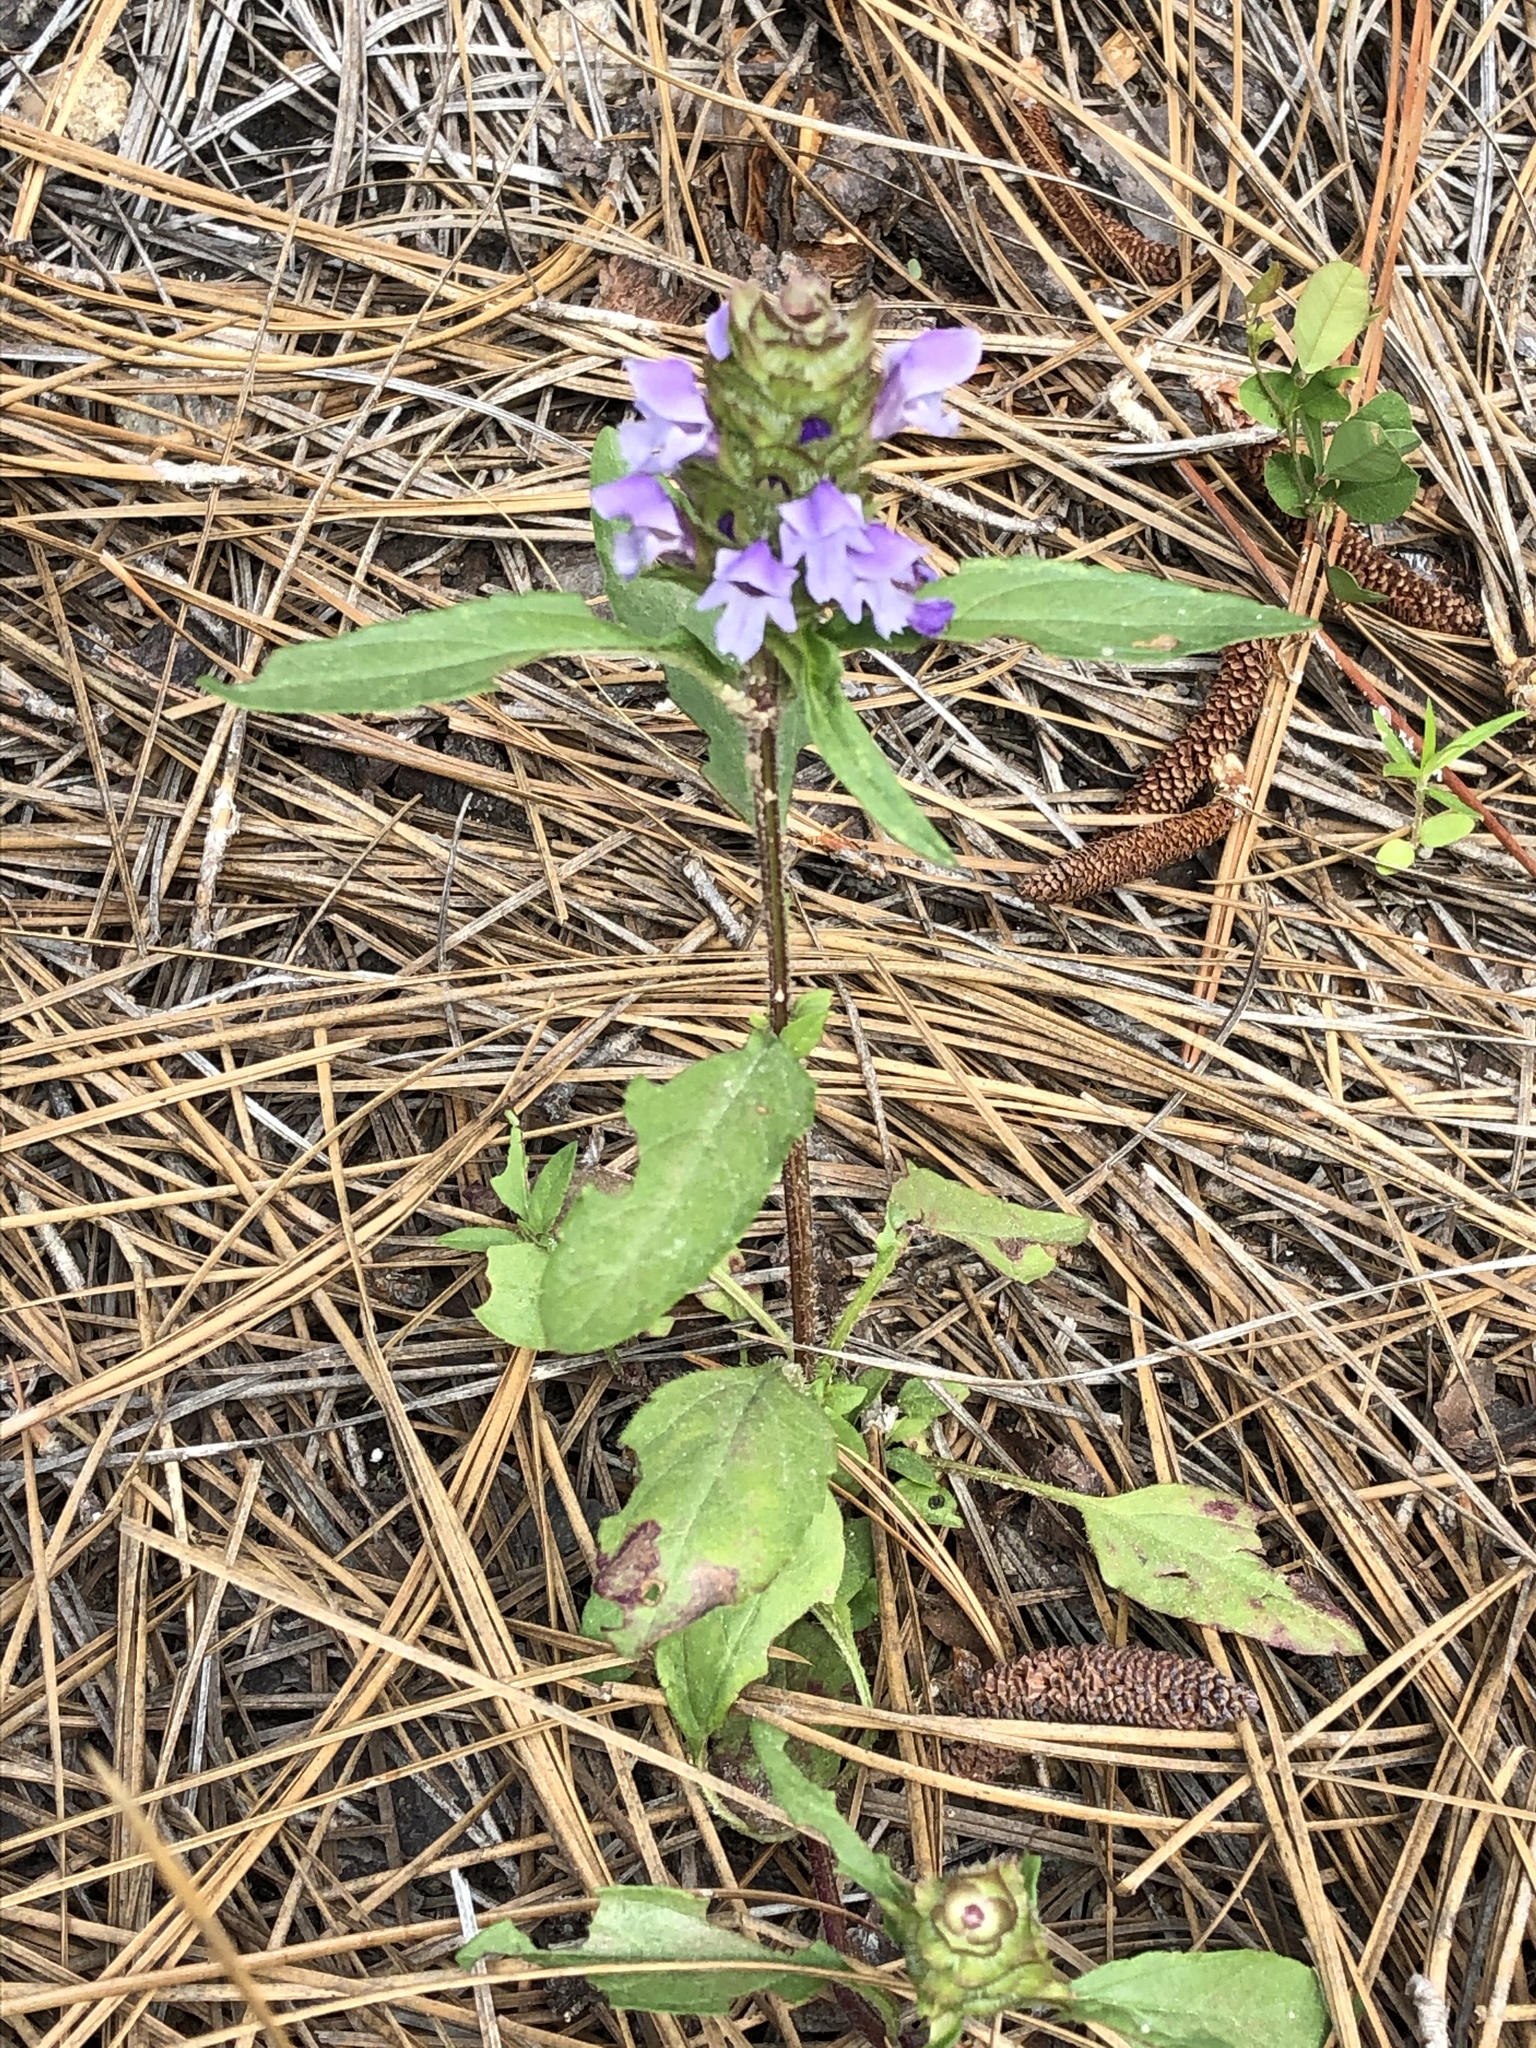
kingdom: Plantae
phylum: Tracheophyta
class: Magnoliopsida
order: Lamiales
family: Lamiaceae
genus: Prunella
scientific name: Prunella vulgaris
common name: Heal-all
